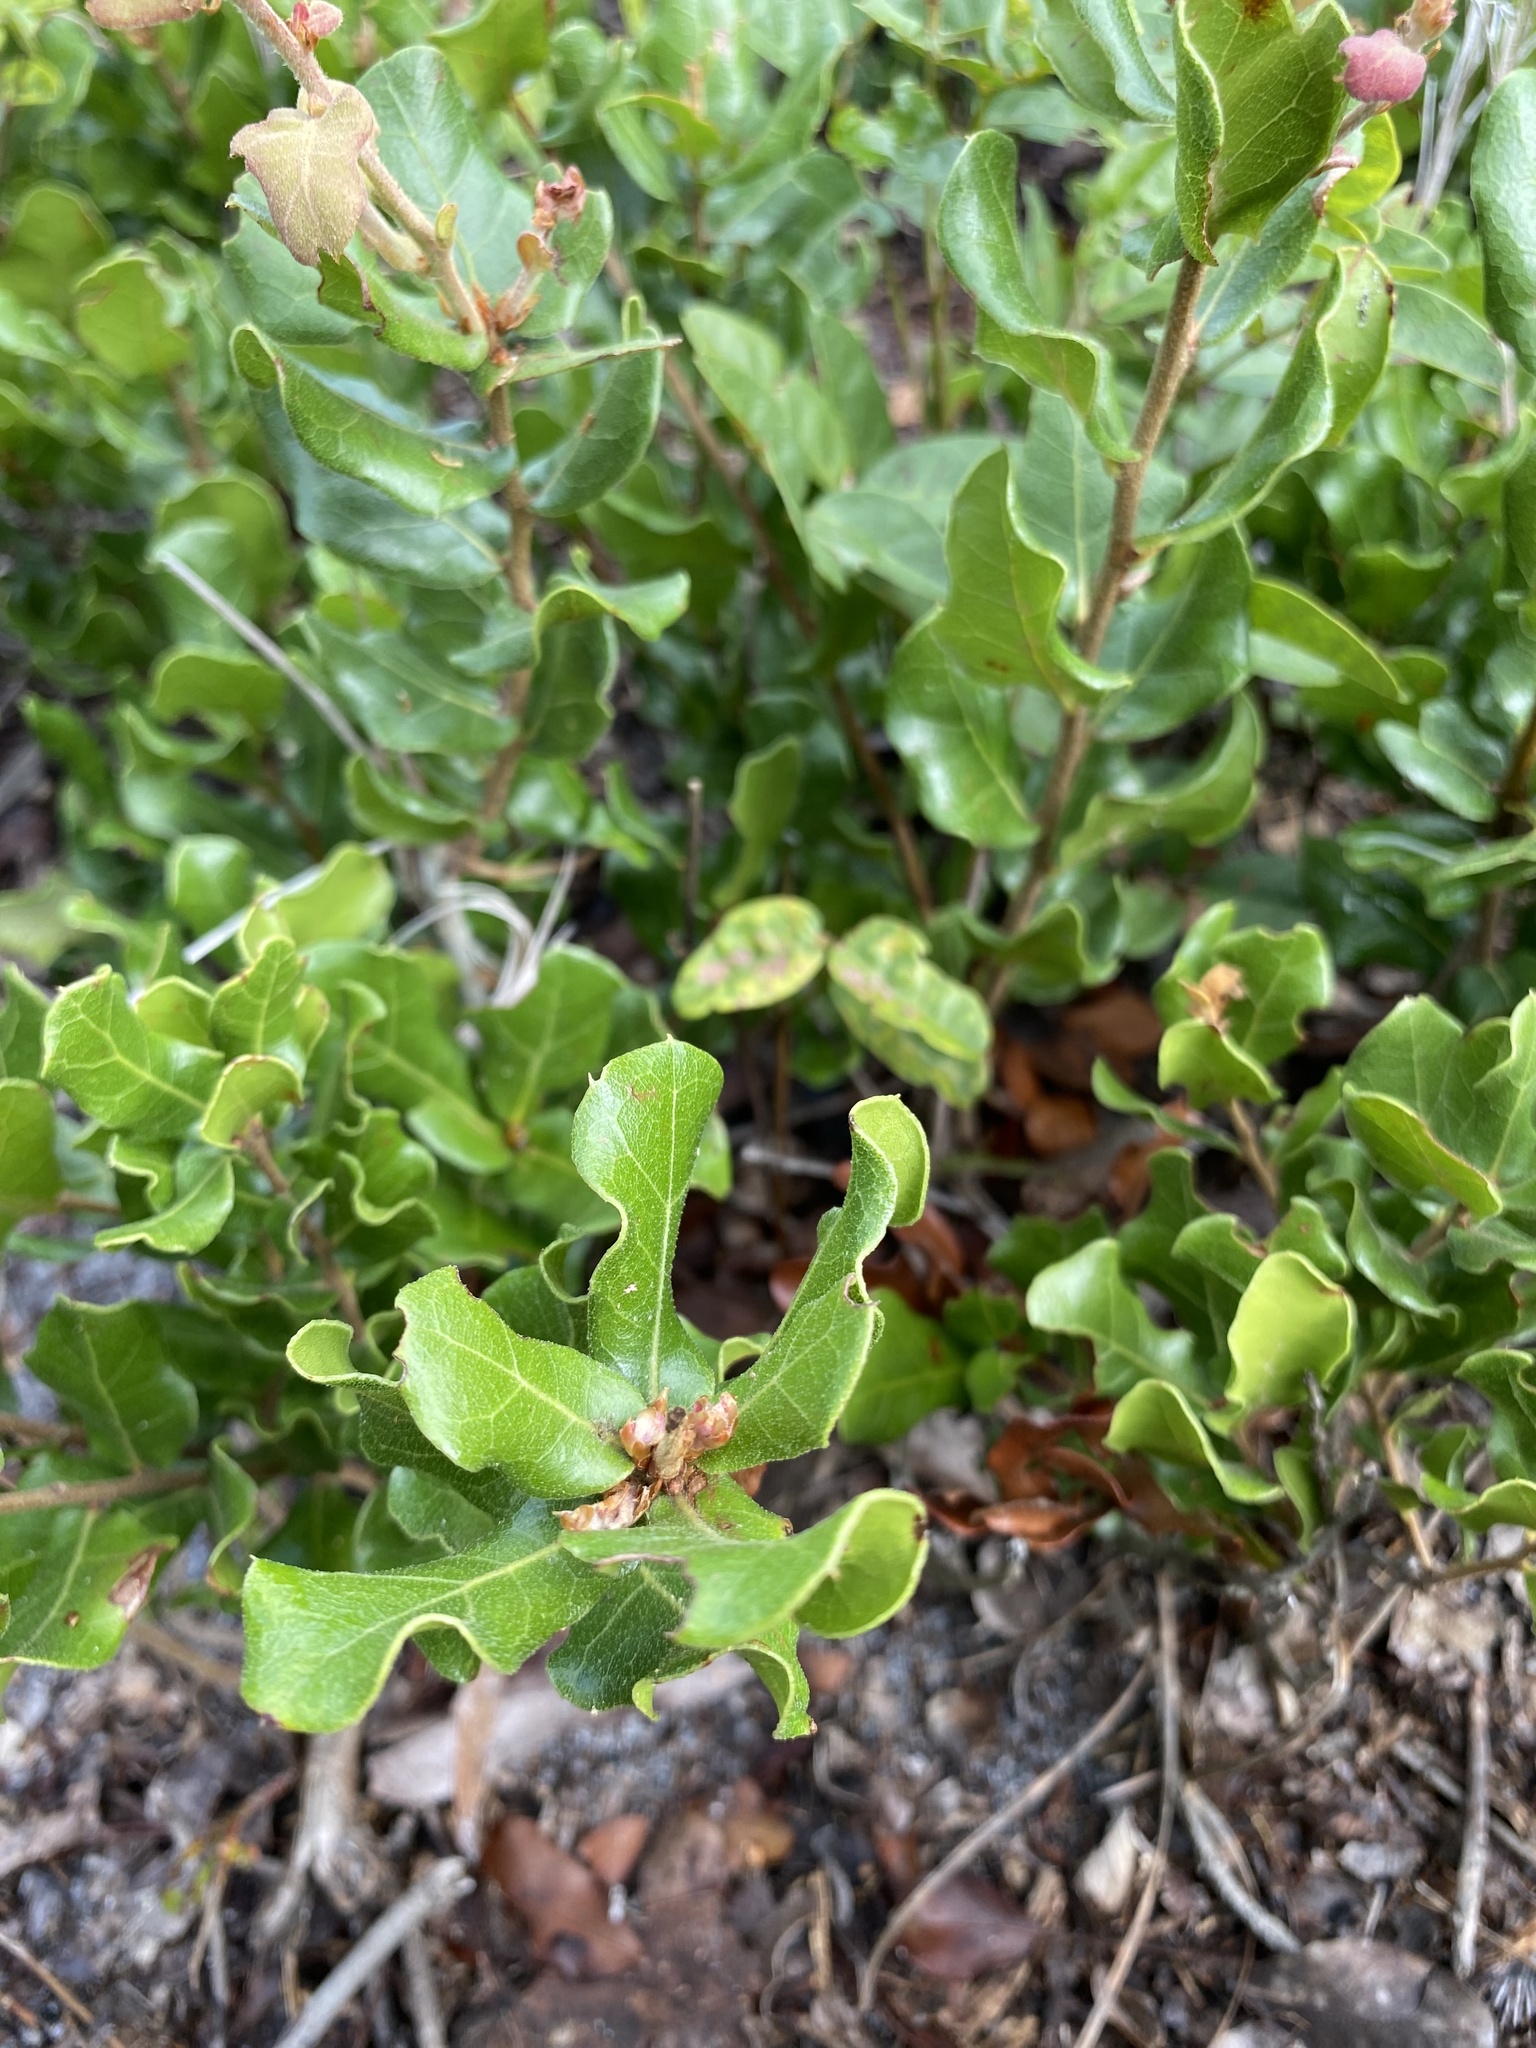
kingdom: Plantae
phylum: Tracheophyta
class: Magnoliopsida
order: Fagales
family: Fagaceae
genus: Quercus
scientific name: Quercus myrtifolia
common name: Myrtle oak
